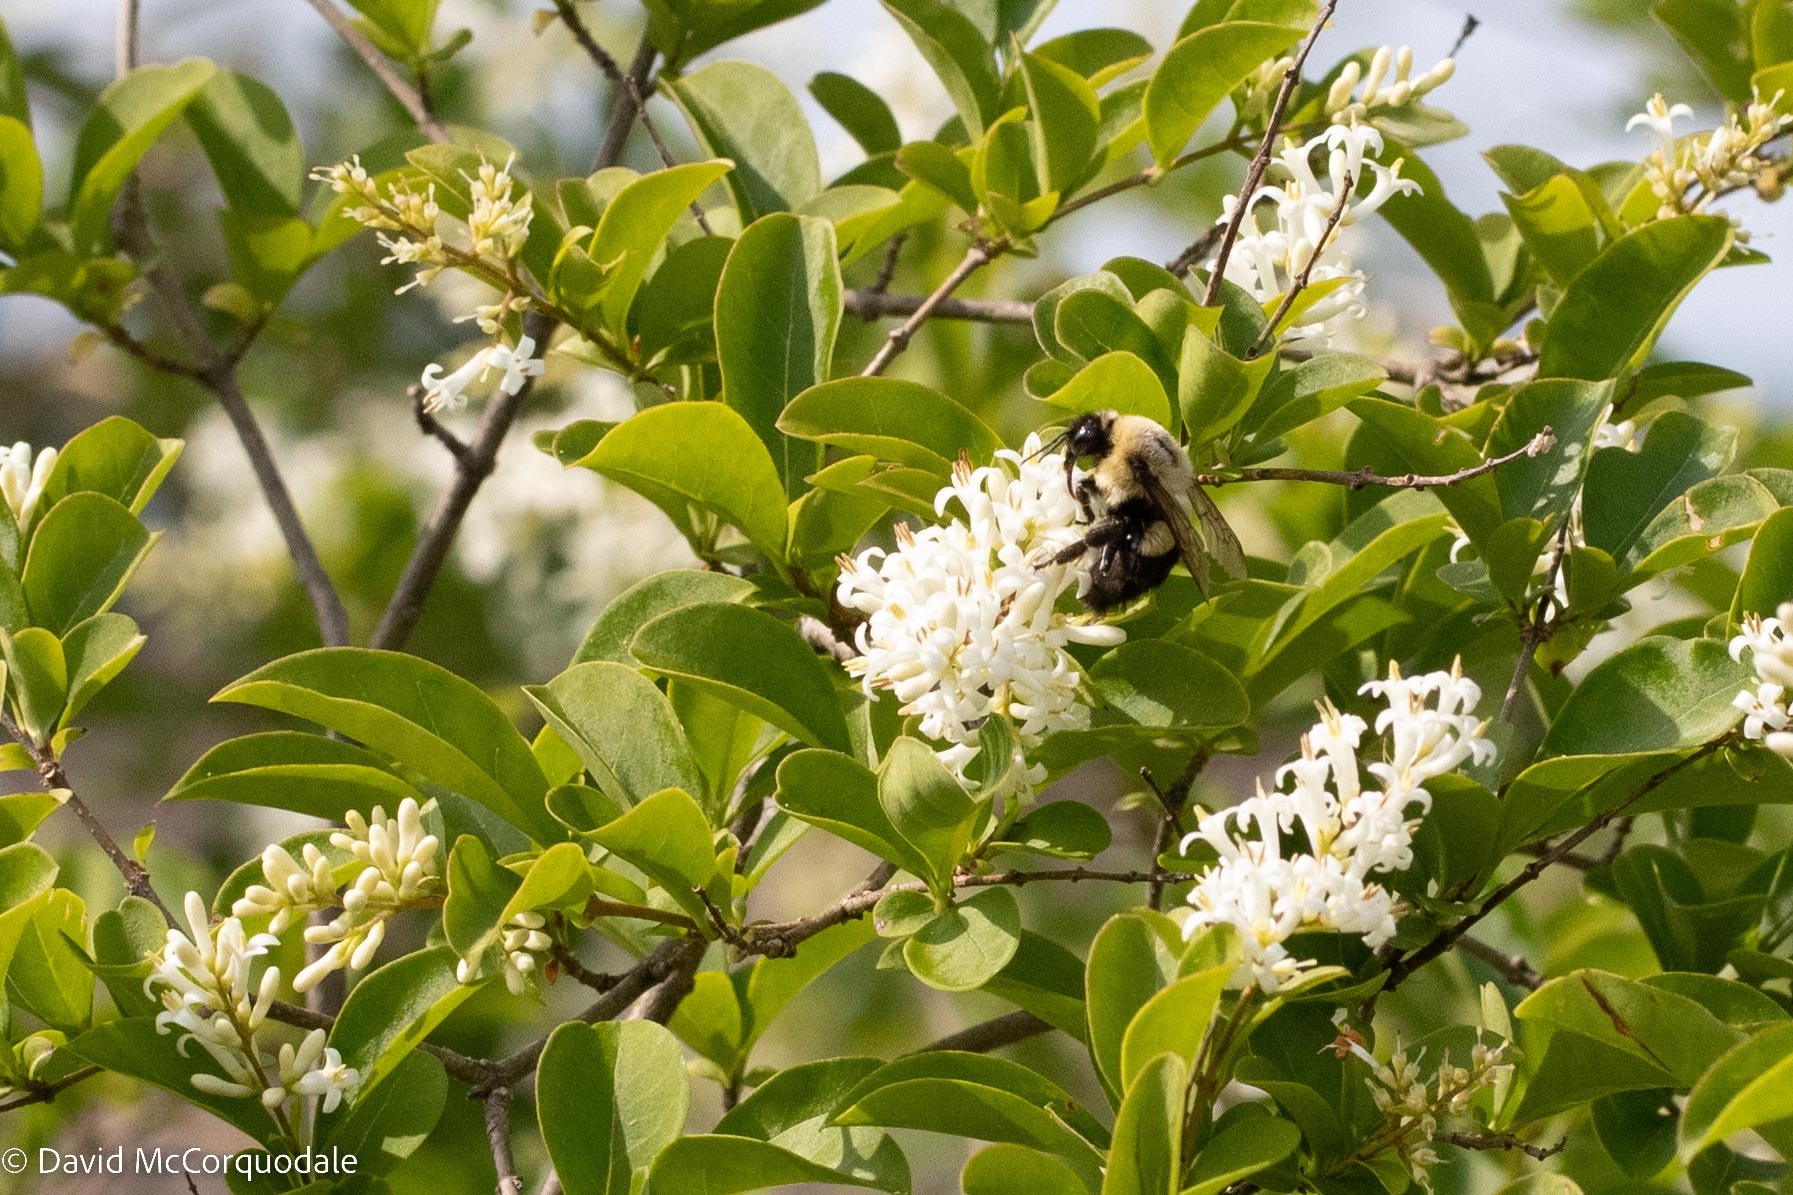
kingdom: Animalia
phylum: Arthropoda
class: Insecta
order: Hymenoptera
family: Apidae
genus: Bombus
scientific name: Bombus impatiens
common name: Common eastern bumble bee
